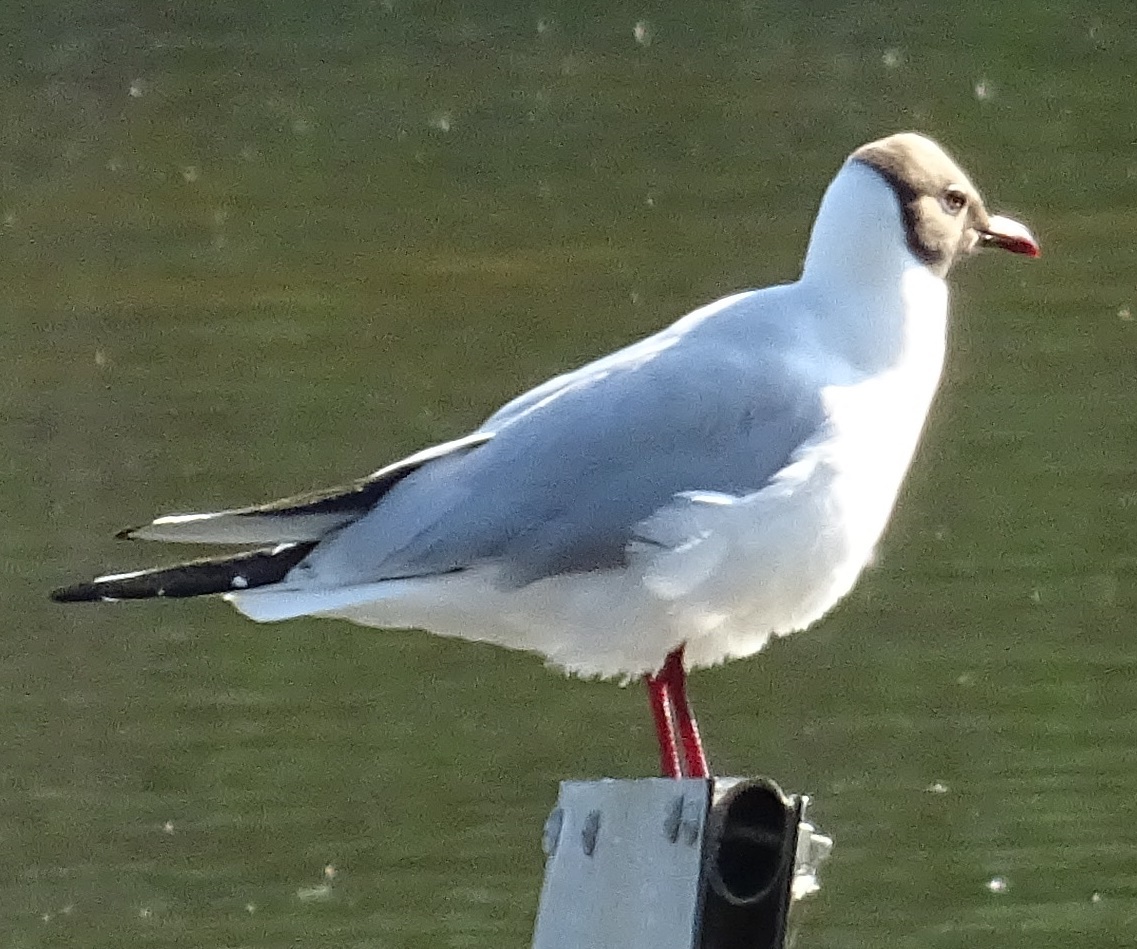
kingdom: Animalia
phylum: Chordata
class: Aves
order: Charadriiformes
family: Laridae
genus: Chroicocephalus
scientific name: Chroicocephalus ridibundus
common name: Black-headed gull
